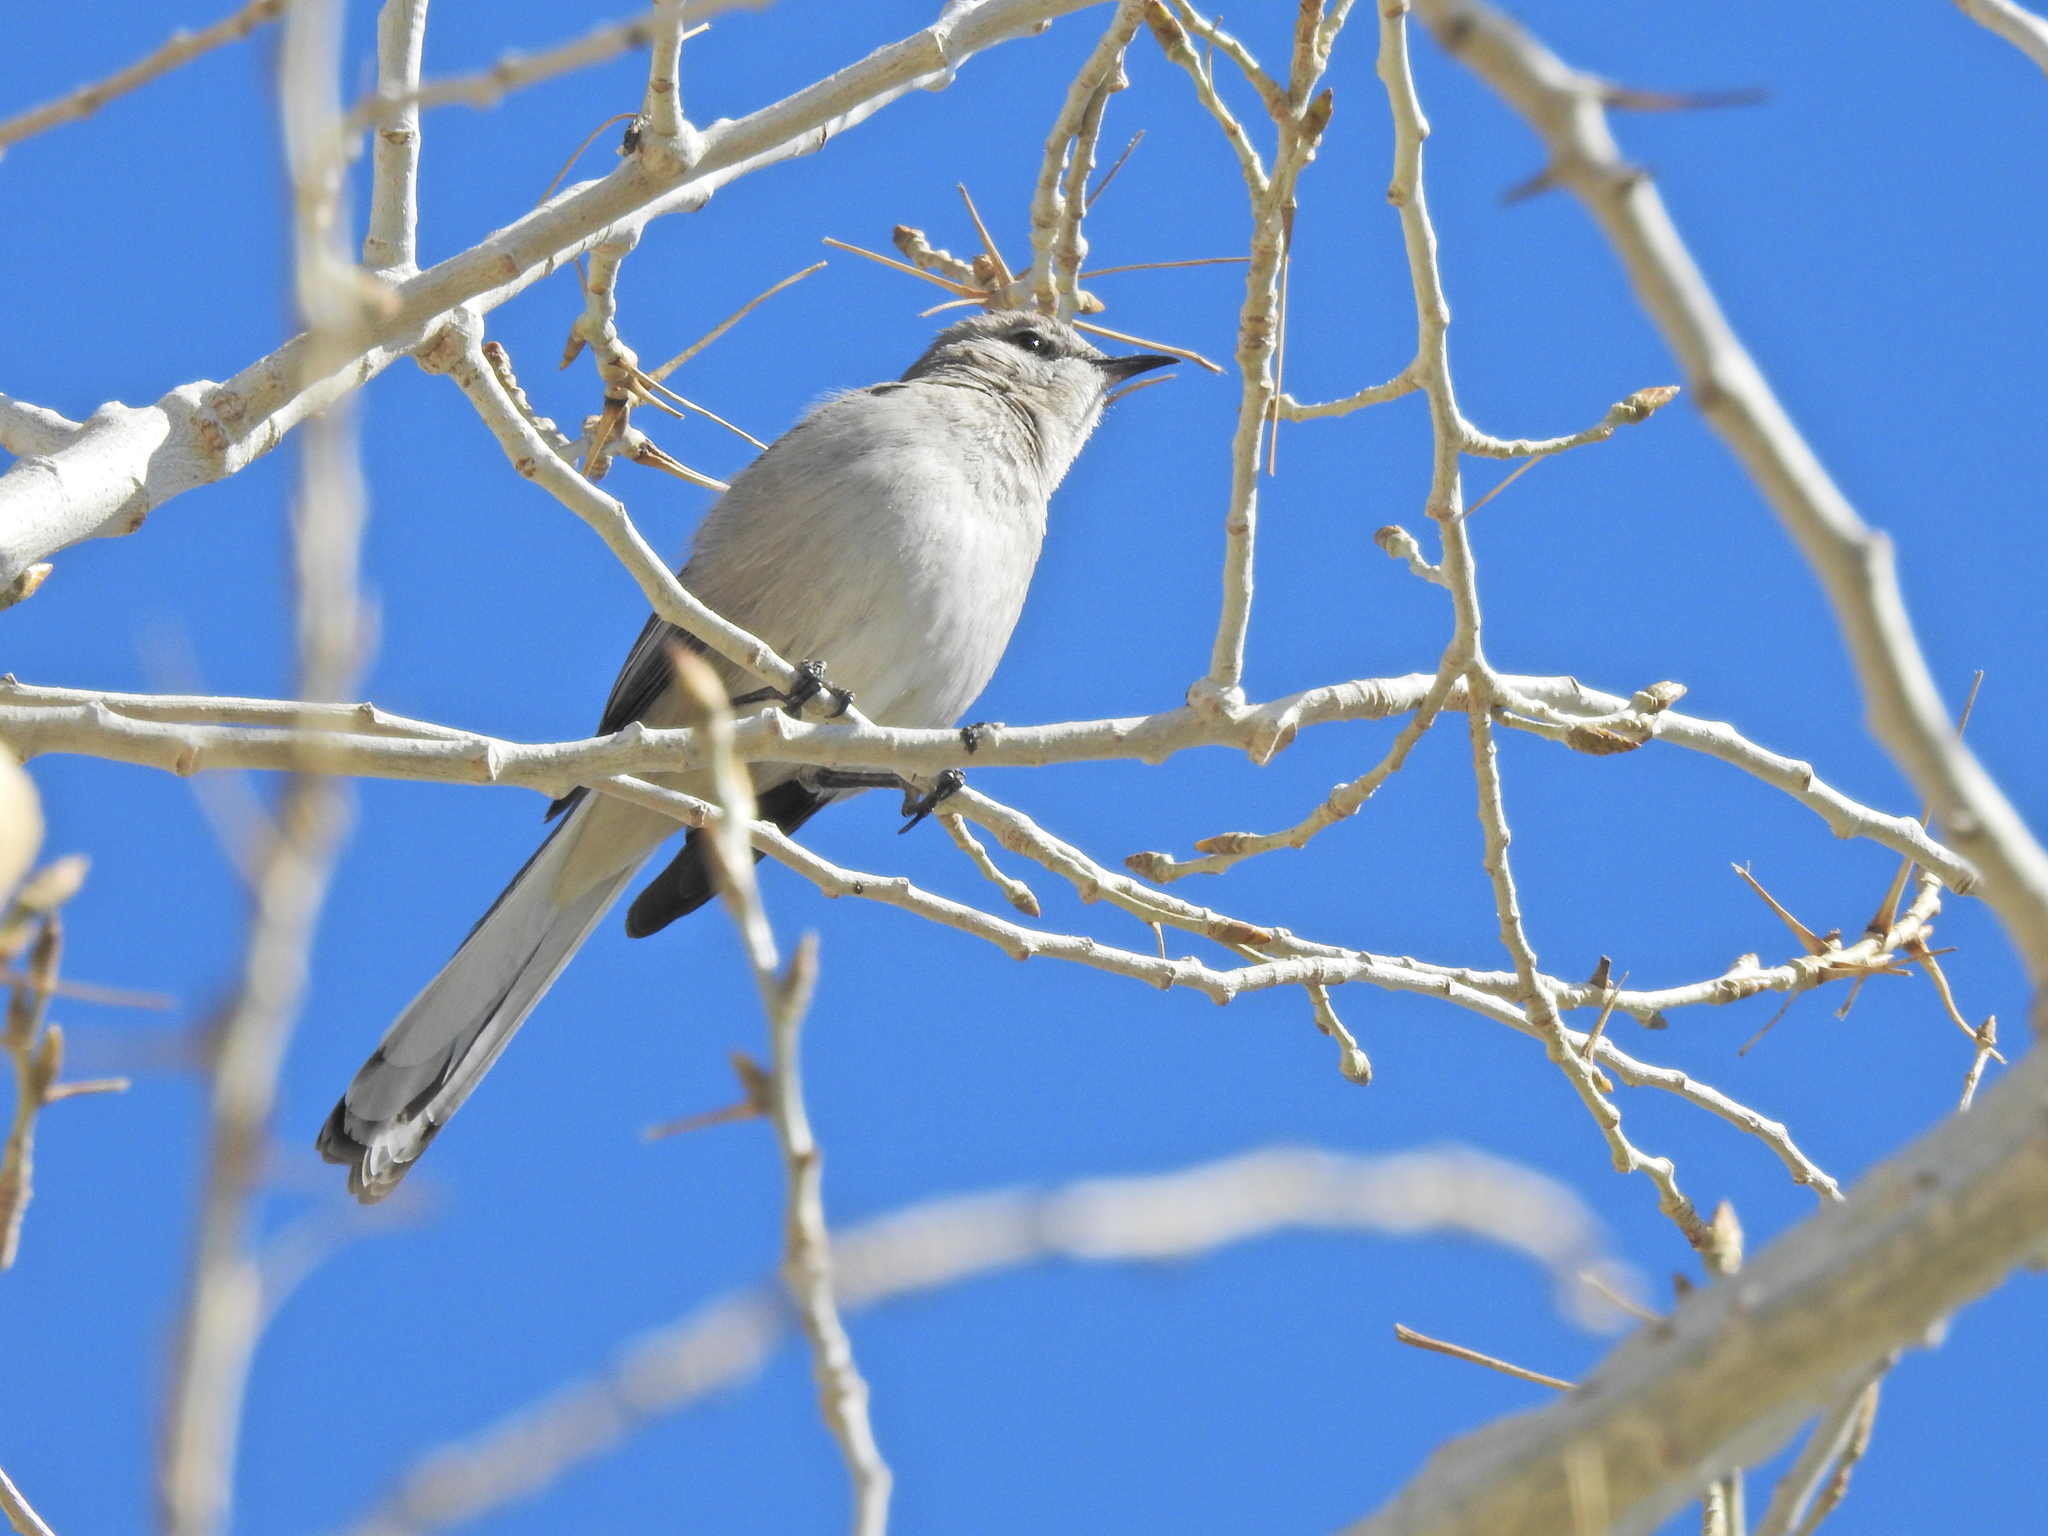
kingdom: Animalia
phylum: Chordata
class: Aves
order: Passeriformes
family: Mimidae
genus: Mimus
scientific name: Mimus polyglottos
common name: Northern mockingbird
